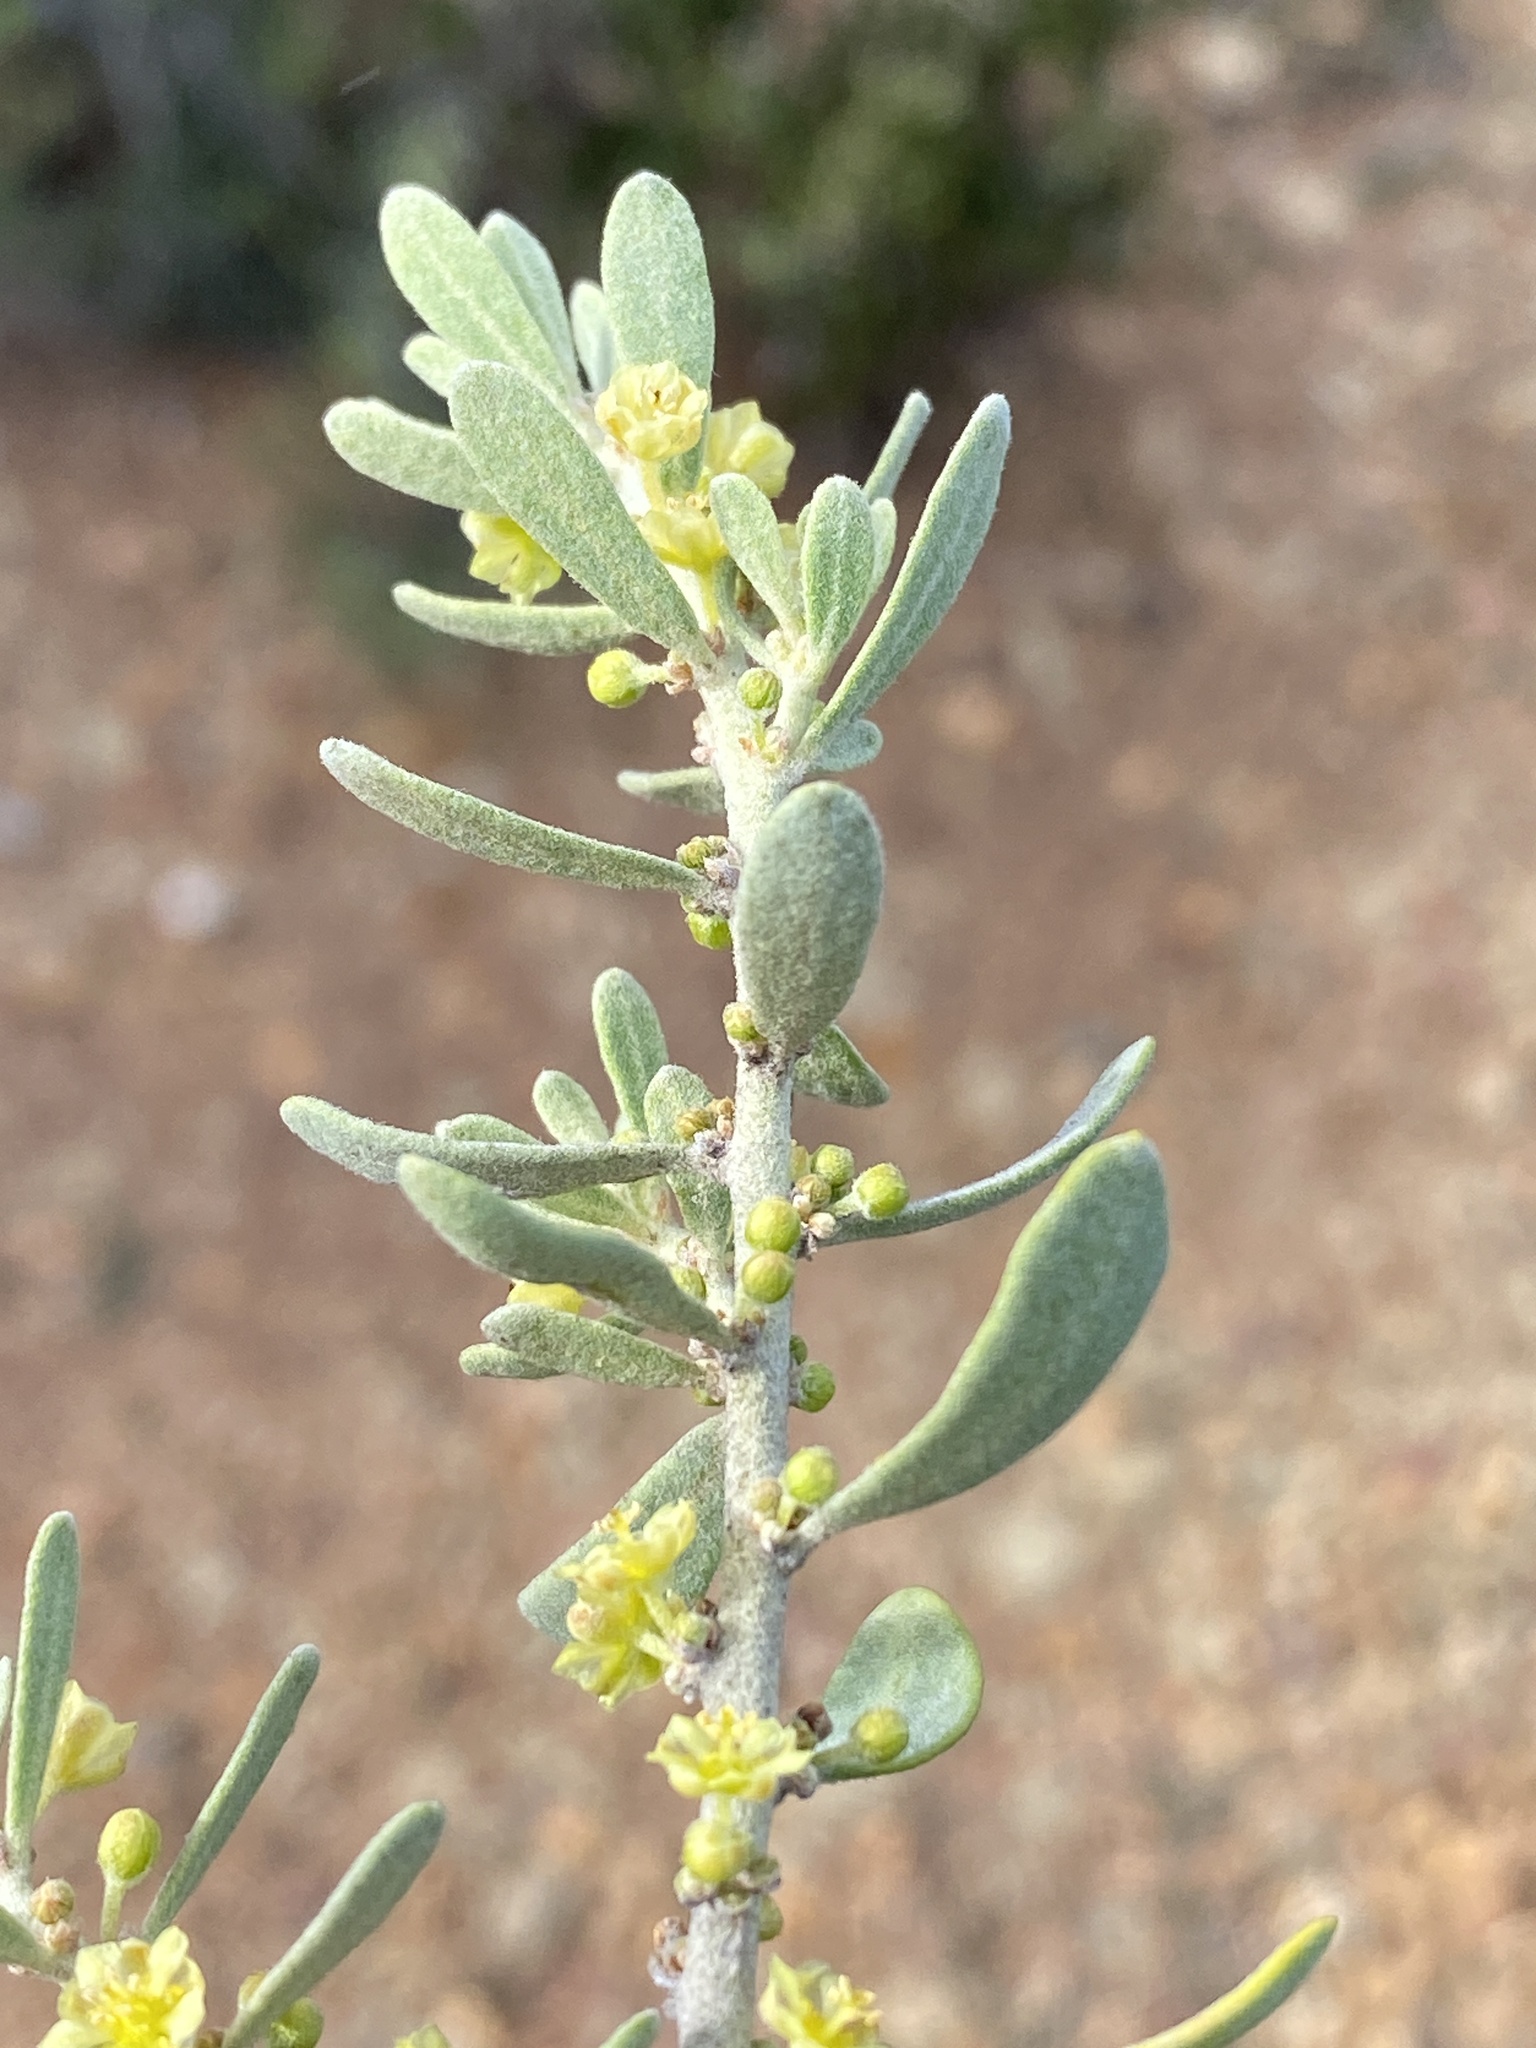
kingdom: Plantae
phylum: Tracheophyta
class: Magnoliopsida
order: Malpighiales
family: Peraceae
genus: Clutia
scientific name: Clutia daphnoides
